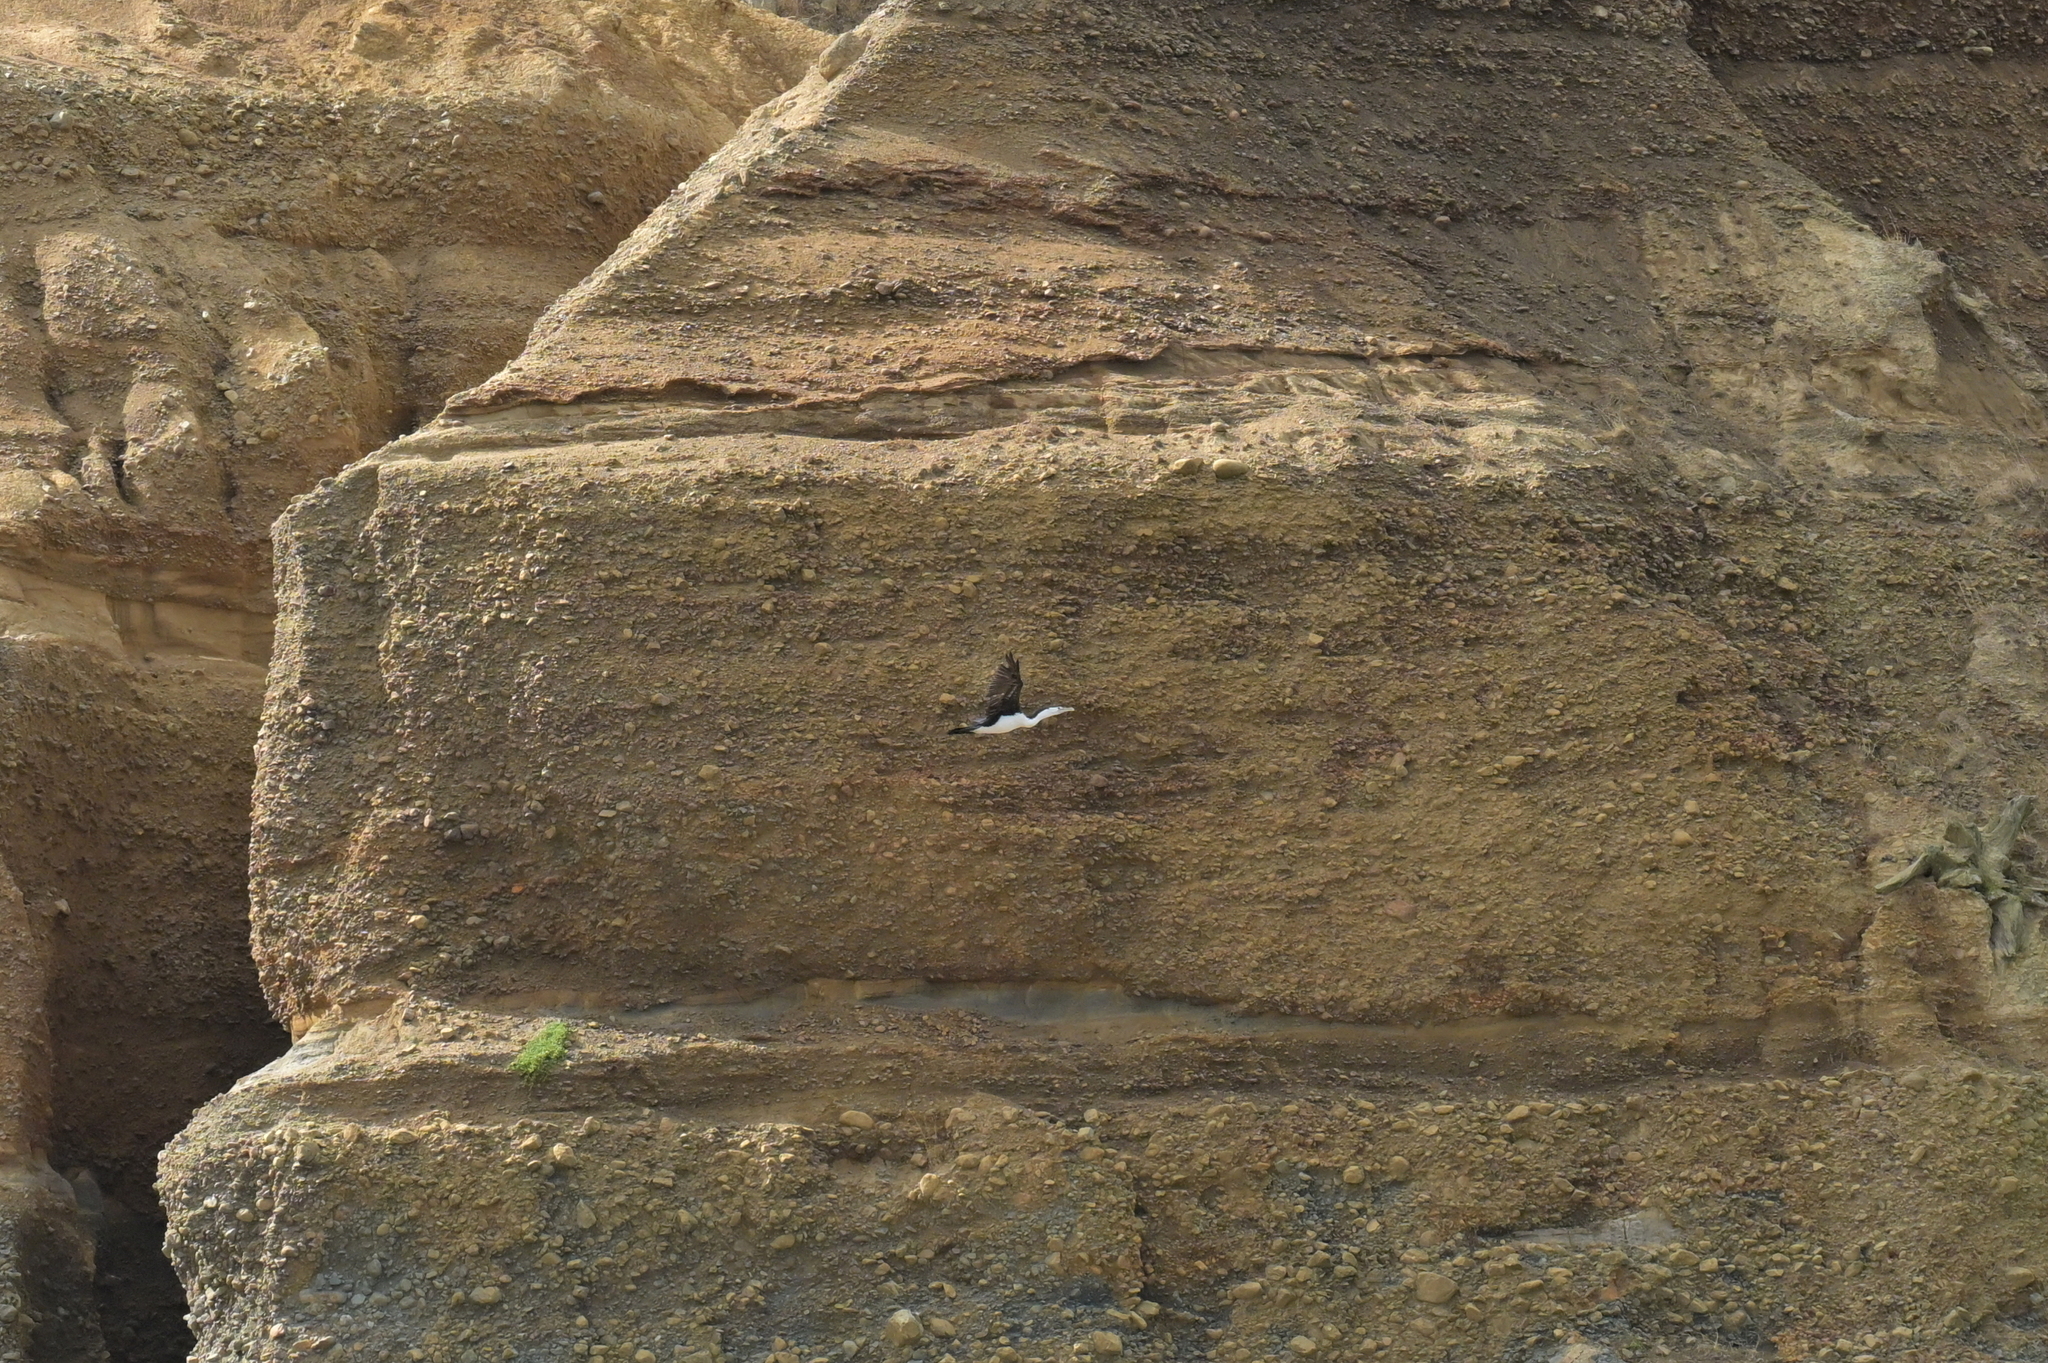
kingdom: Animalia
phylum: Chordata
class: Aves
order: Suliformes
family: Phalacrocoracidae
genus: Phalacrocorax
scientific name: Phalacrocorax varius
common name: Pied cormorant
